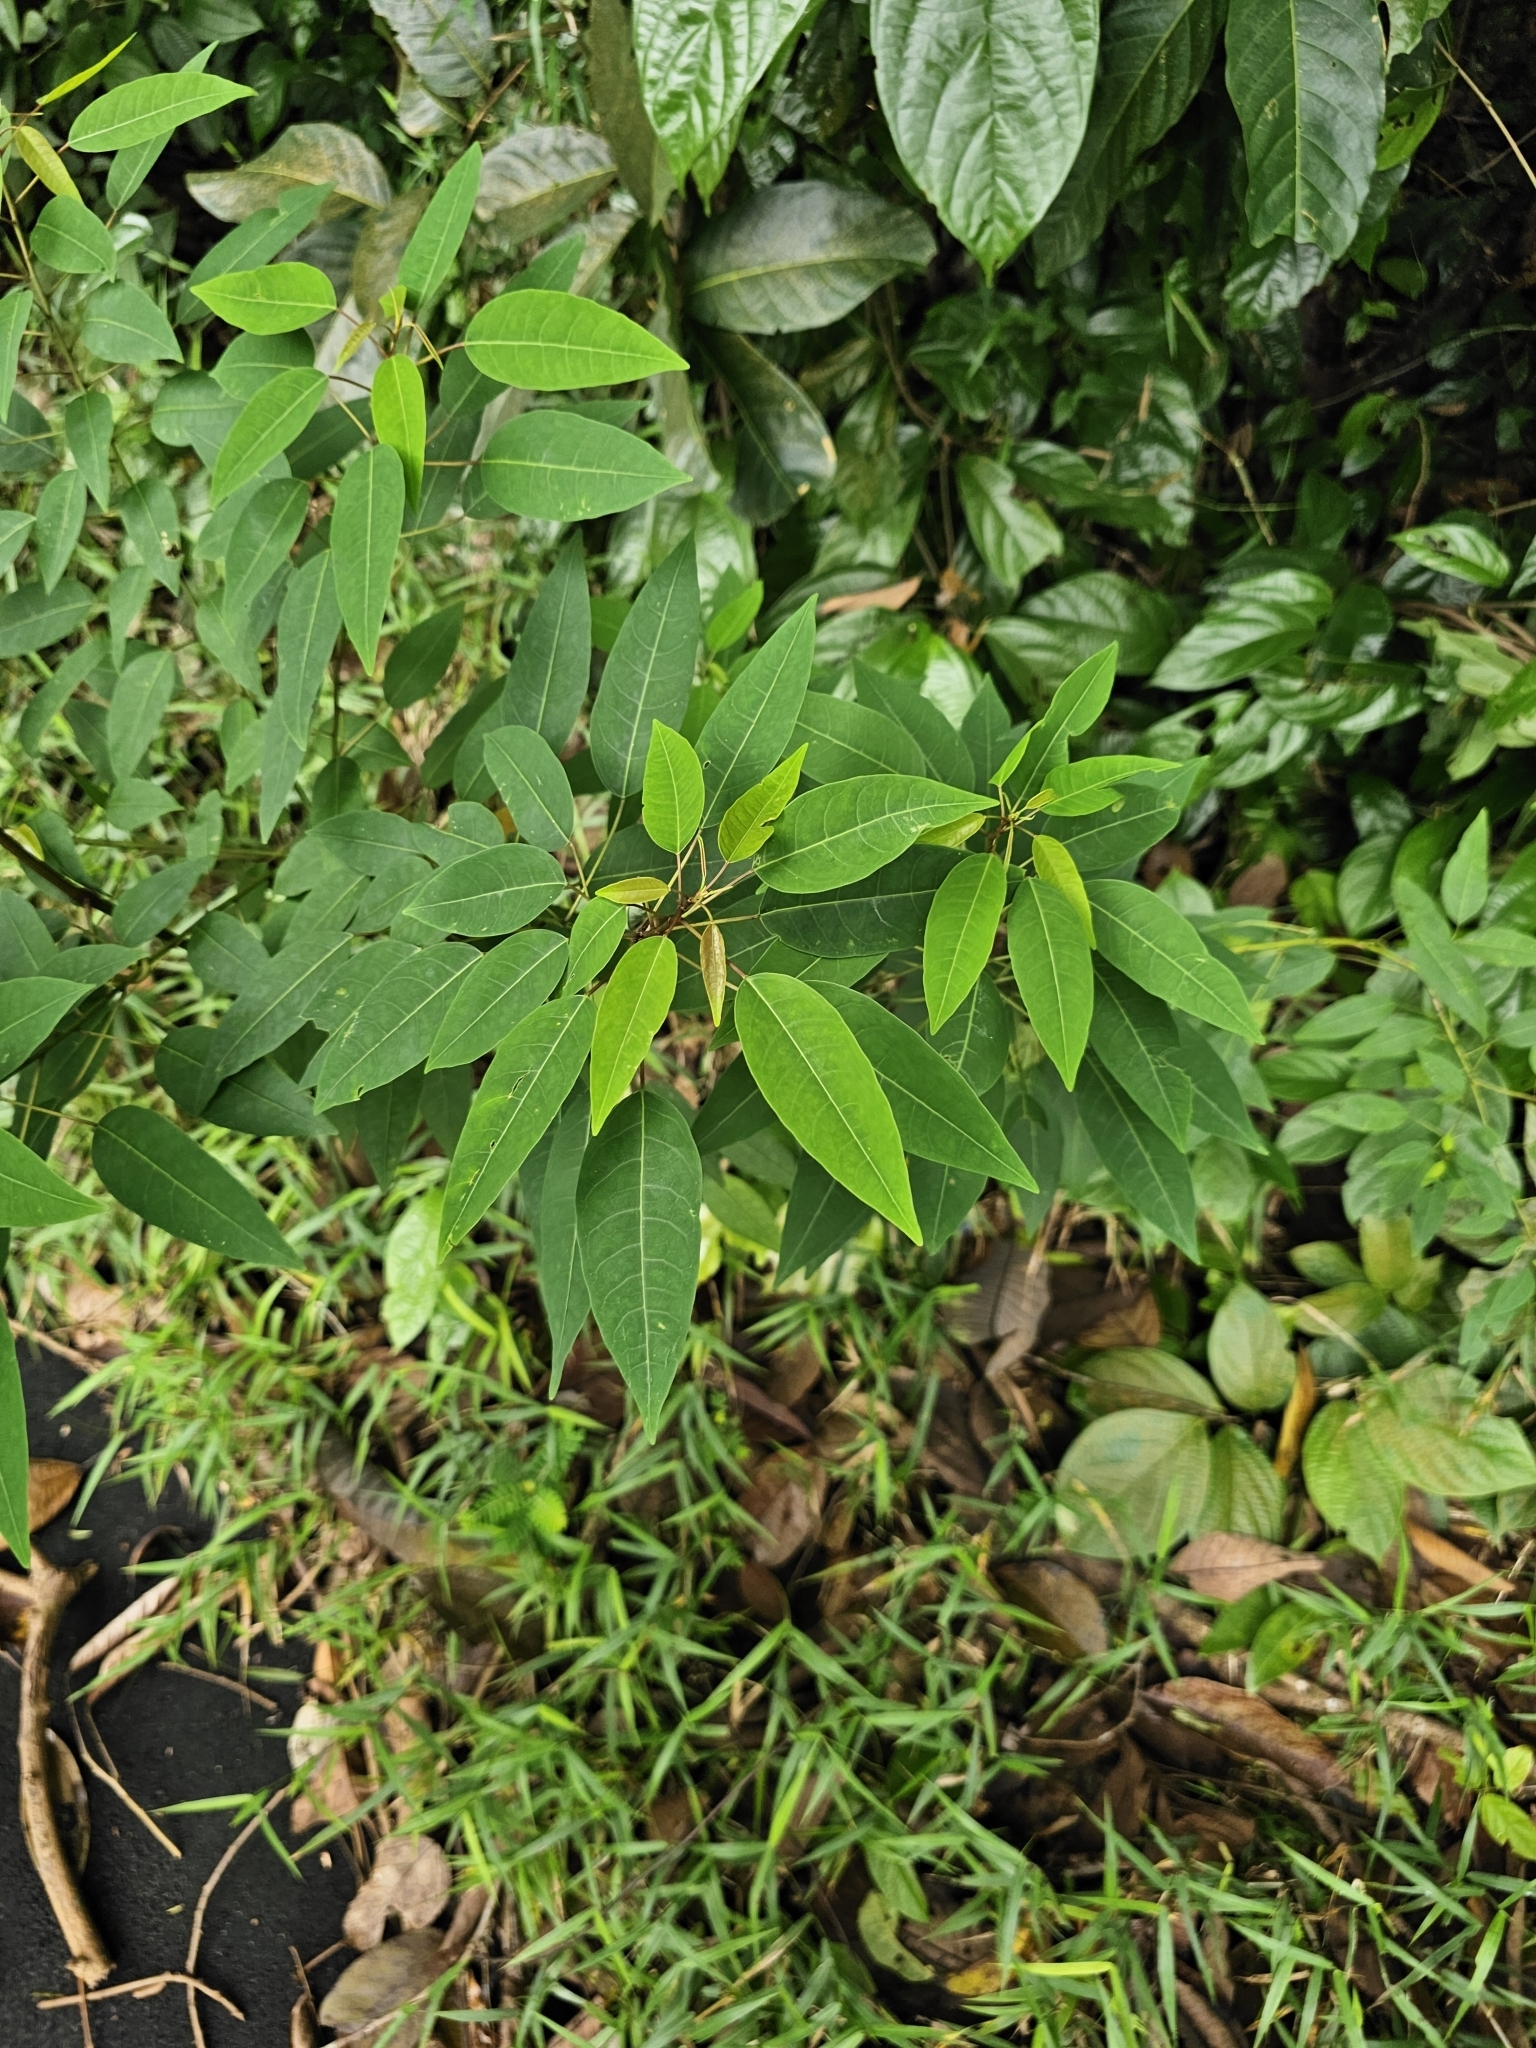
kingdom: Plantae
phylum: Tracheophyta
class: Magnoliopsida
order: Malpighiales
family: Euphorbiaceae
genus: Triadica
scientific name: Triadica cochinchinensis
